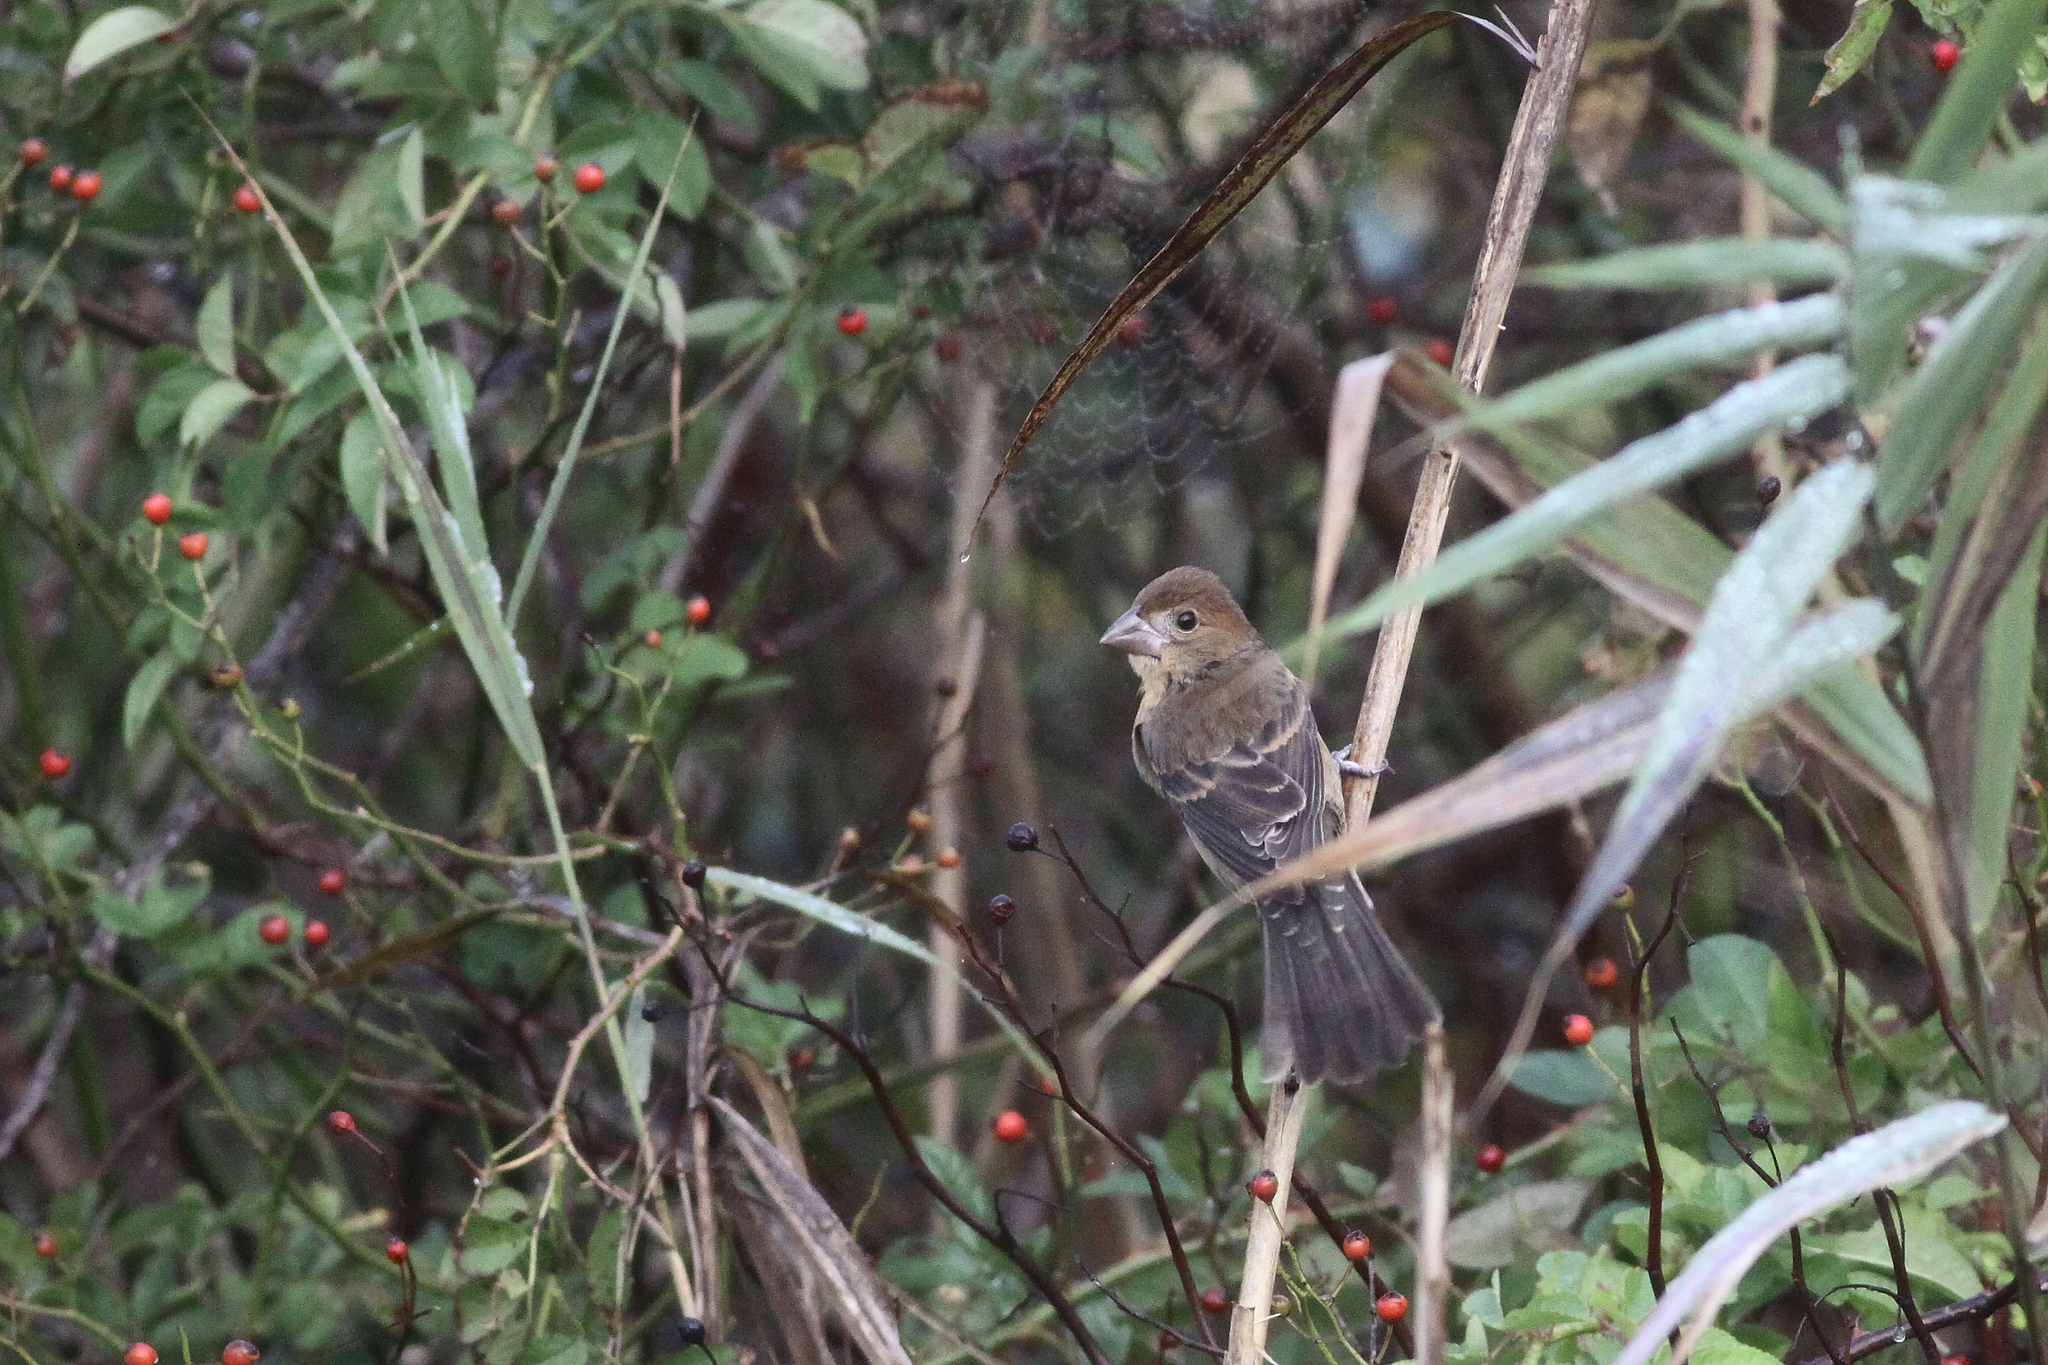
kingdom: Animalia
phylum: Chordata
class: Aves
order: Passeriformes
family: Cardinalidae
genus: Passerina
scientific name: Passerina caerulea
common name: Blue grosbeak
